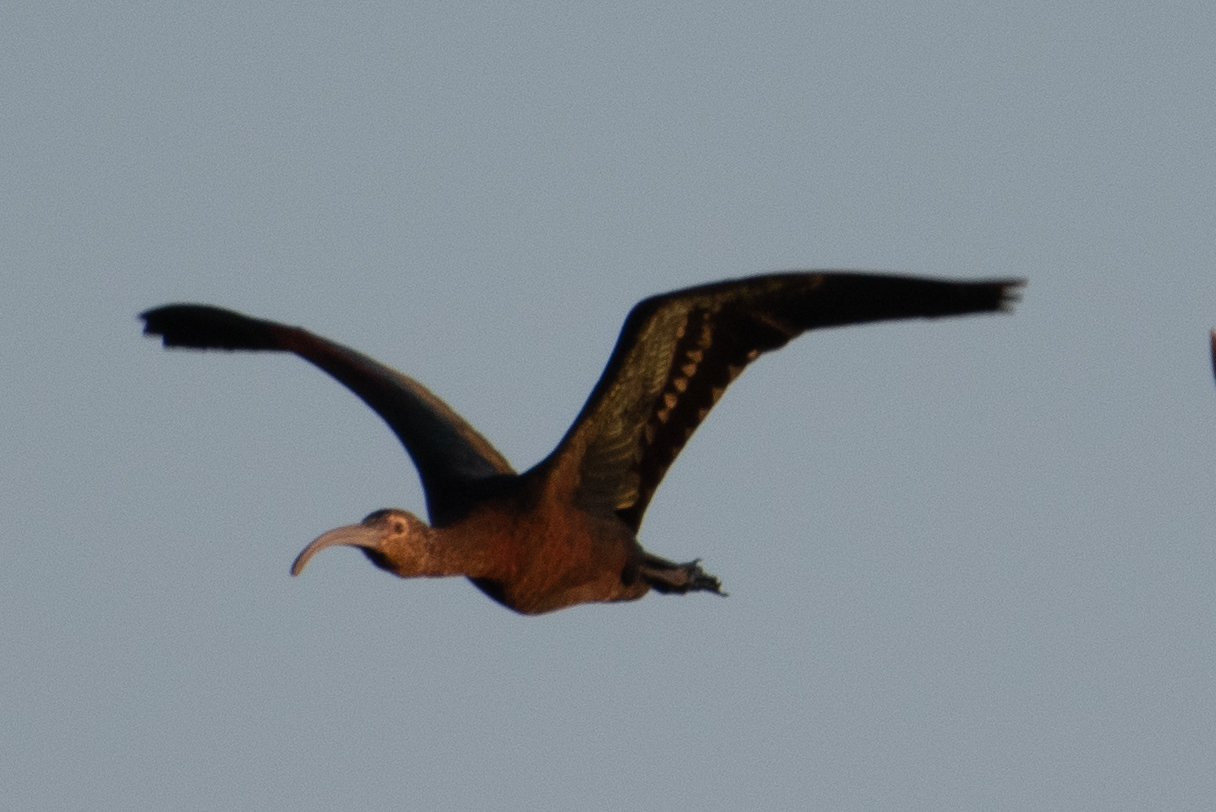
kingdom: Animalia
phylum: Chordata
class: Aves
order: Pelecaniformes
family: Threskiornithidae
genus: Plegadis
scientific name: Plegadis chihi
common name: White-faced ibis
